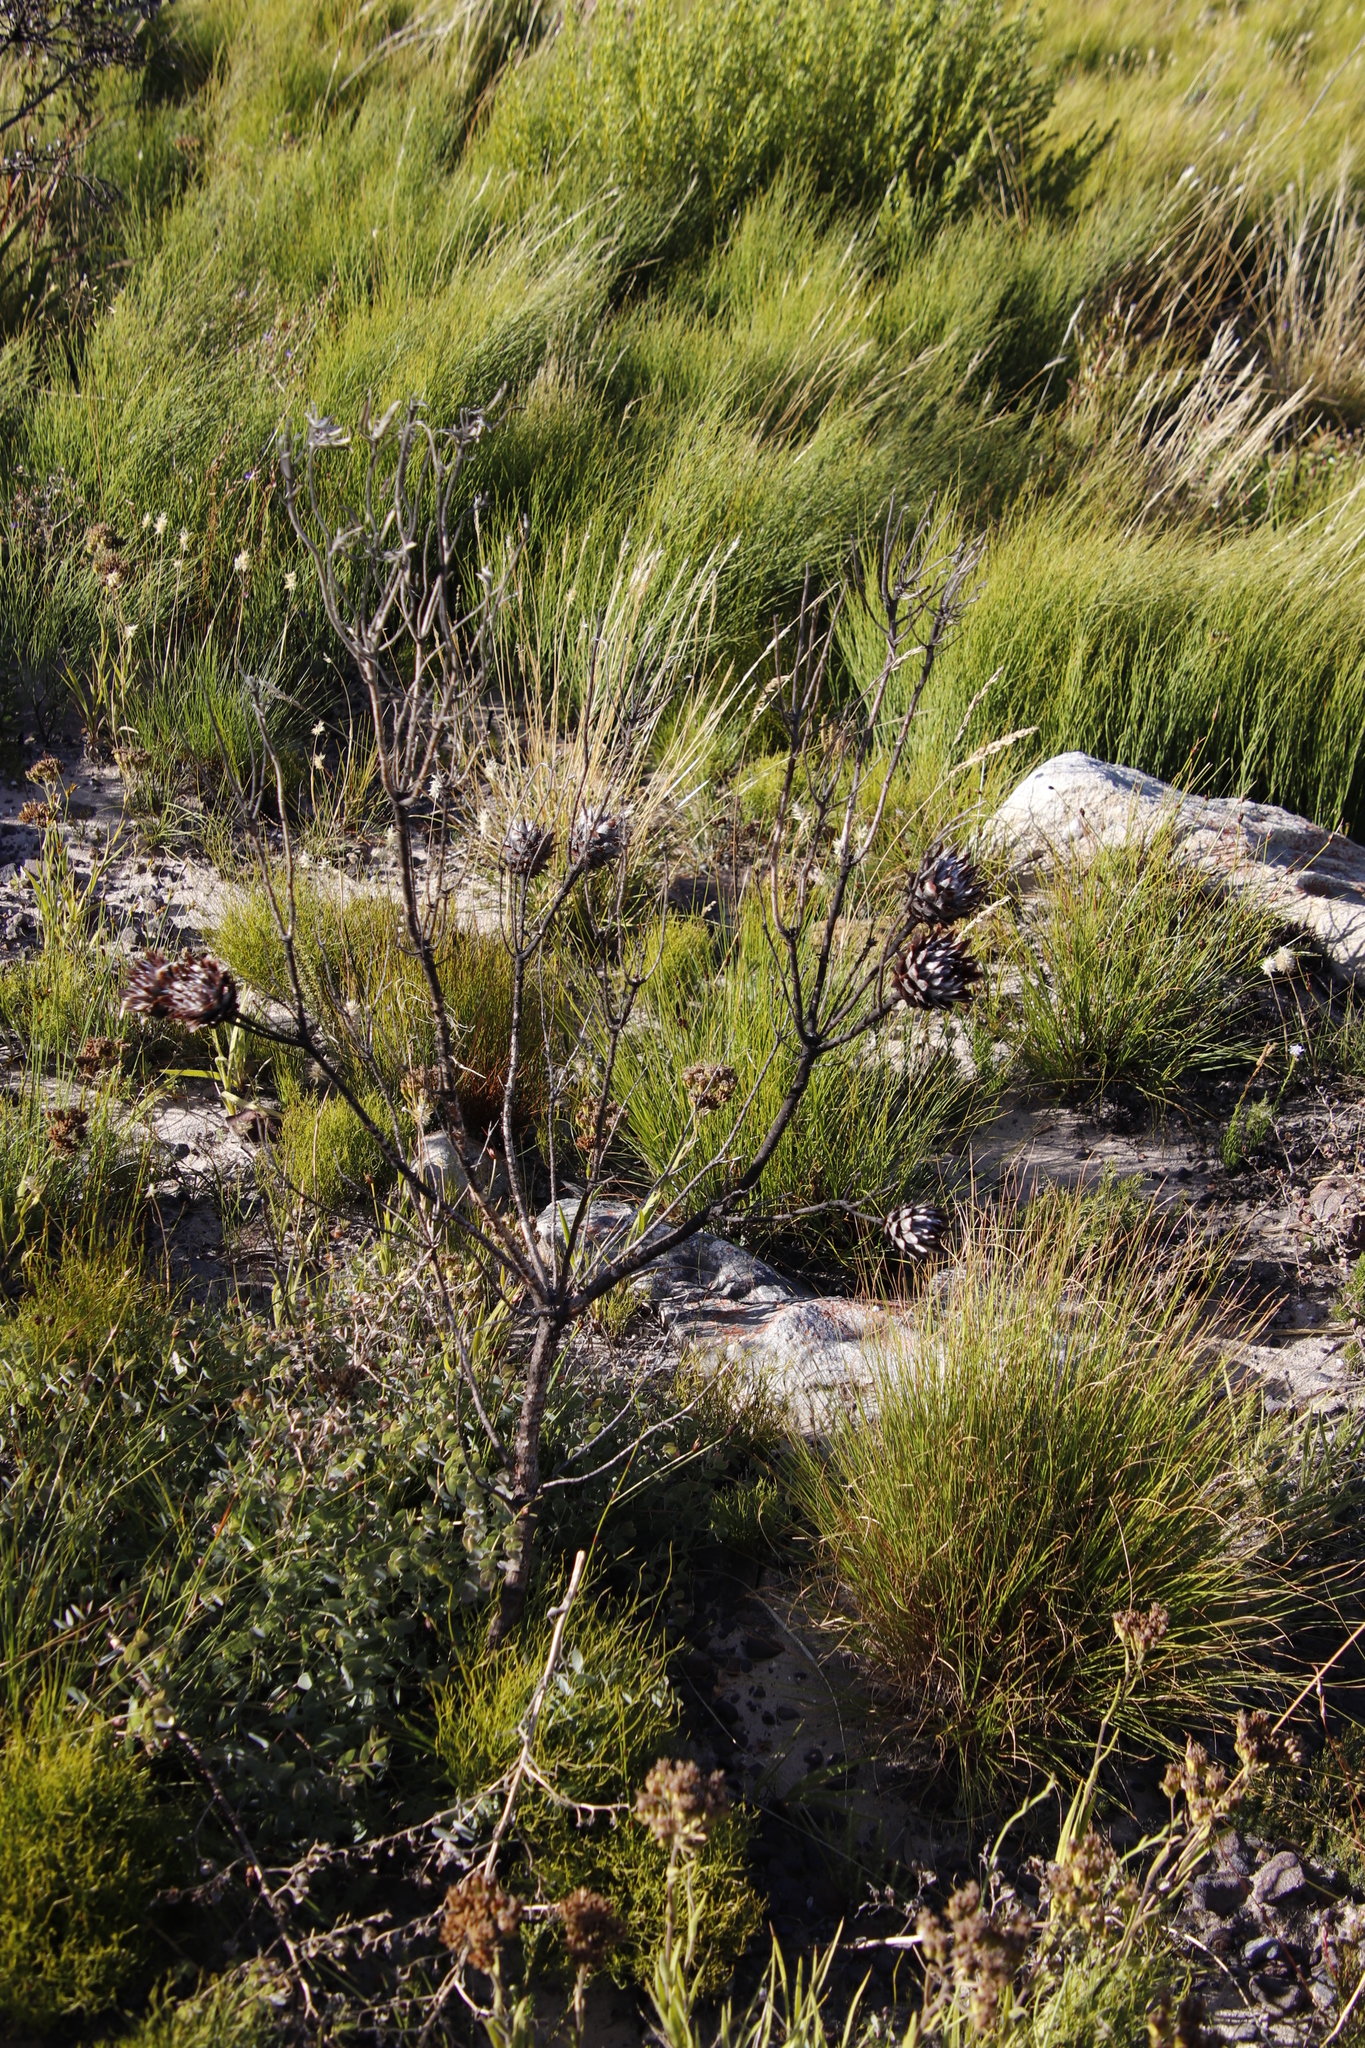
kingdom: Plantae
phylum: Tracheophyta
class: Magnoliopsida
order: Proteales
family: Proteaceae
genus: Leucadendron
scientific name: Leucadendron rubrum
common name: Spinning top
